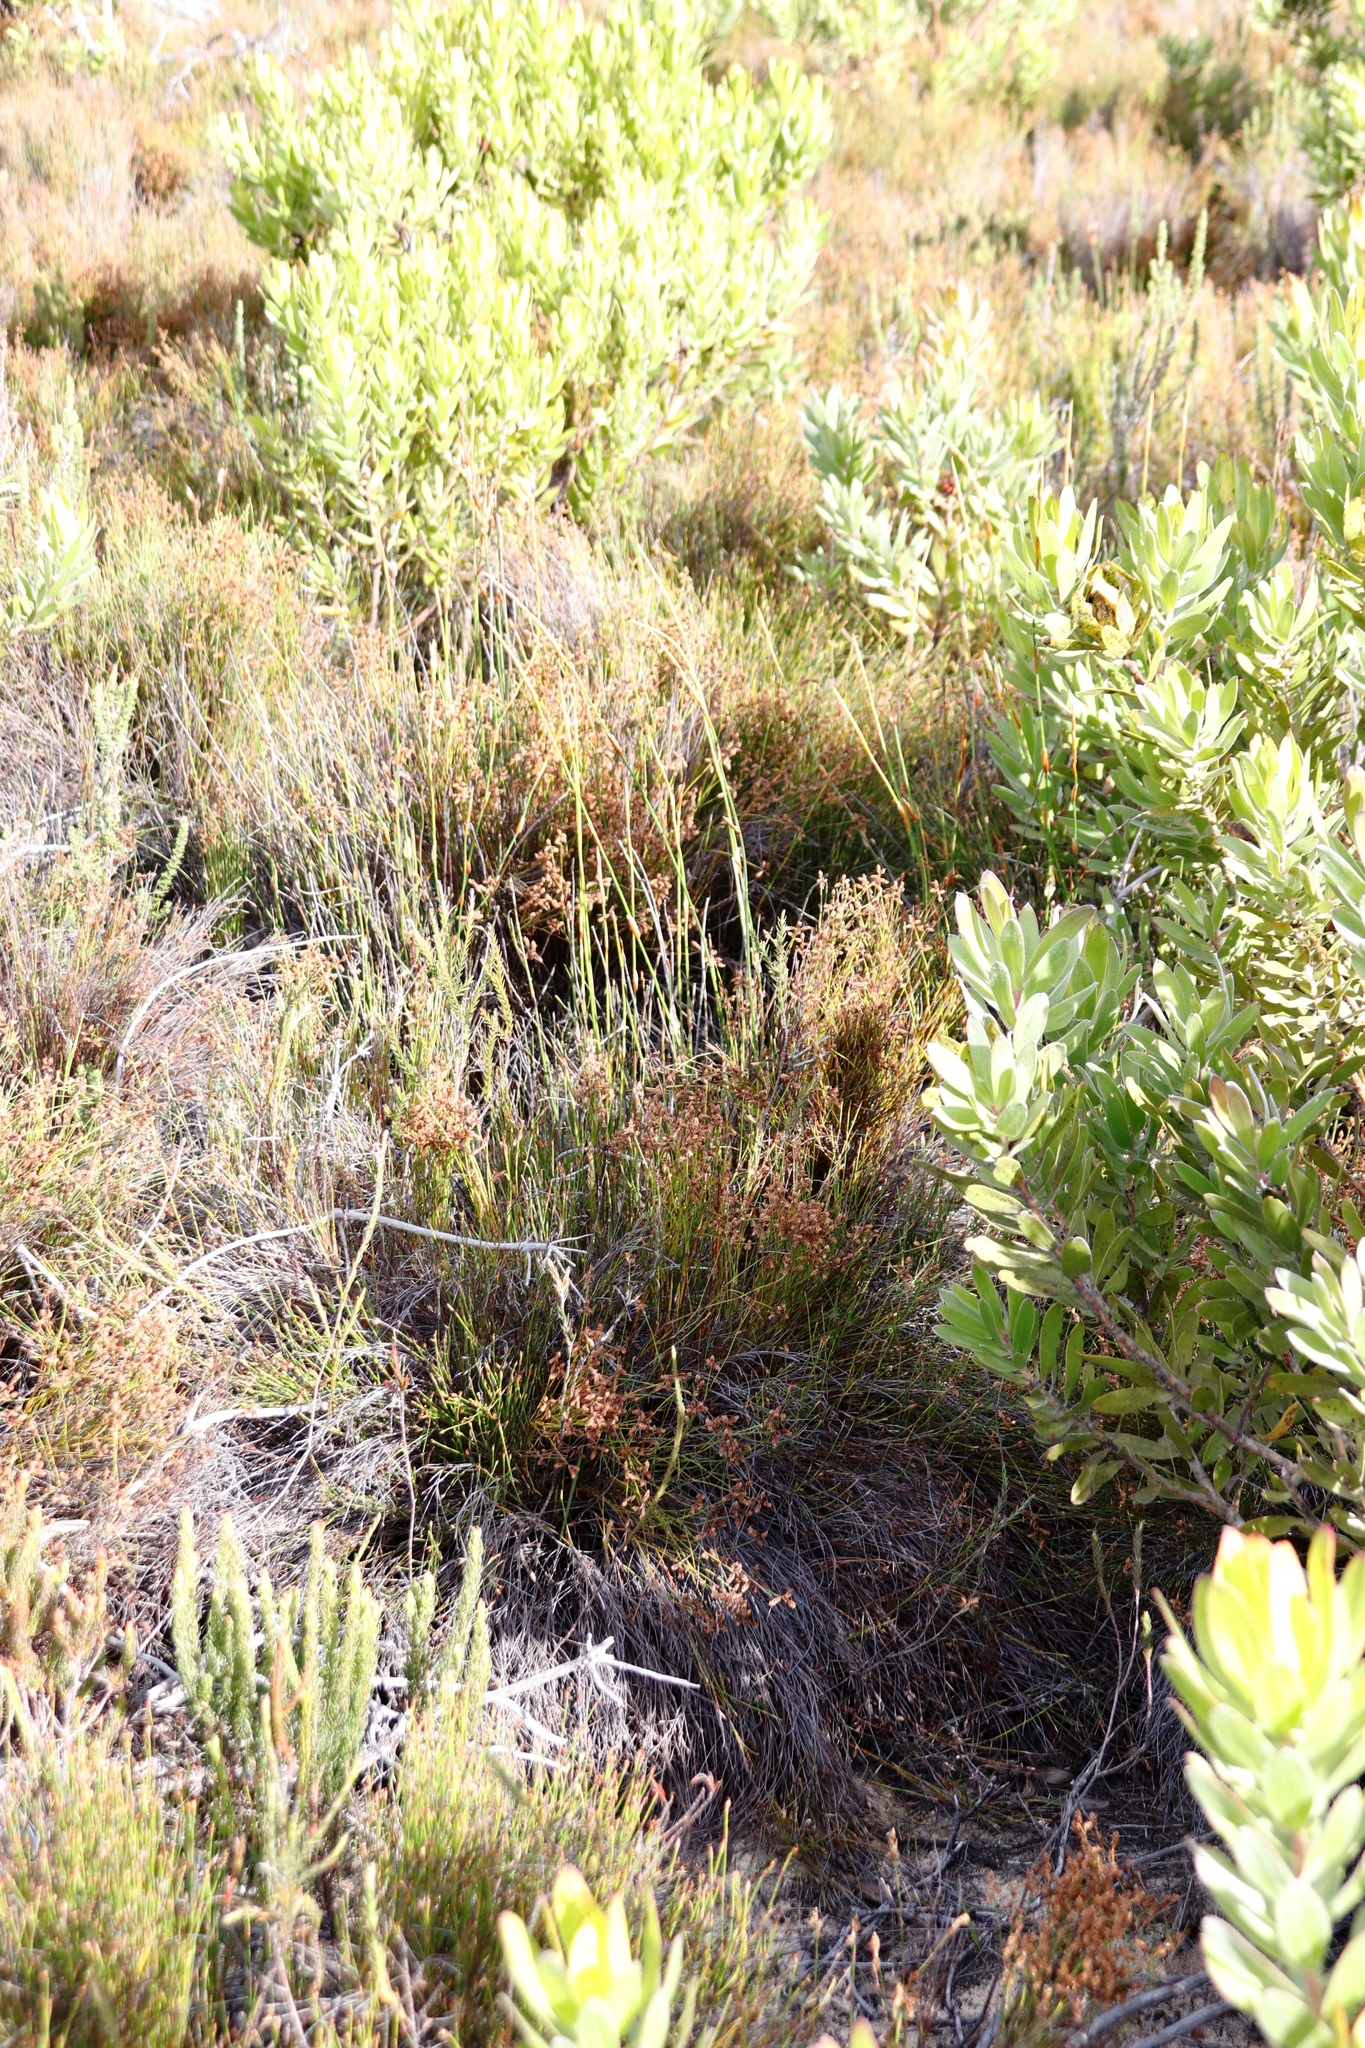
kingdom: Plantae
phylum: Tracheophyta
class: Liliopsida
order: Poales
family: Restionaceae
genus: Mastersiella
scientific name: Mastersiella digitata
